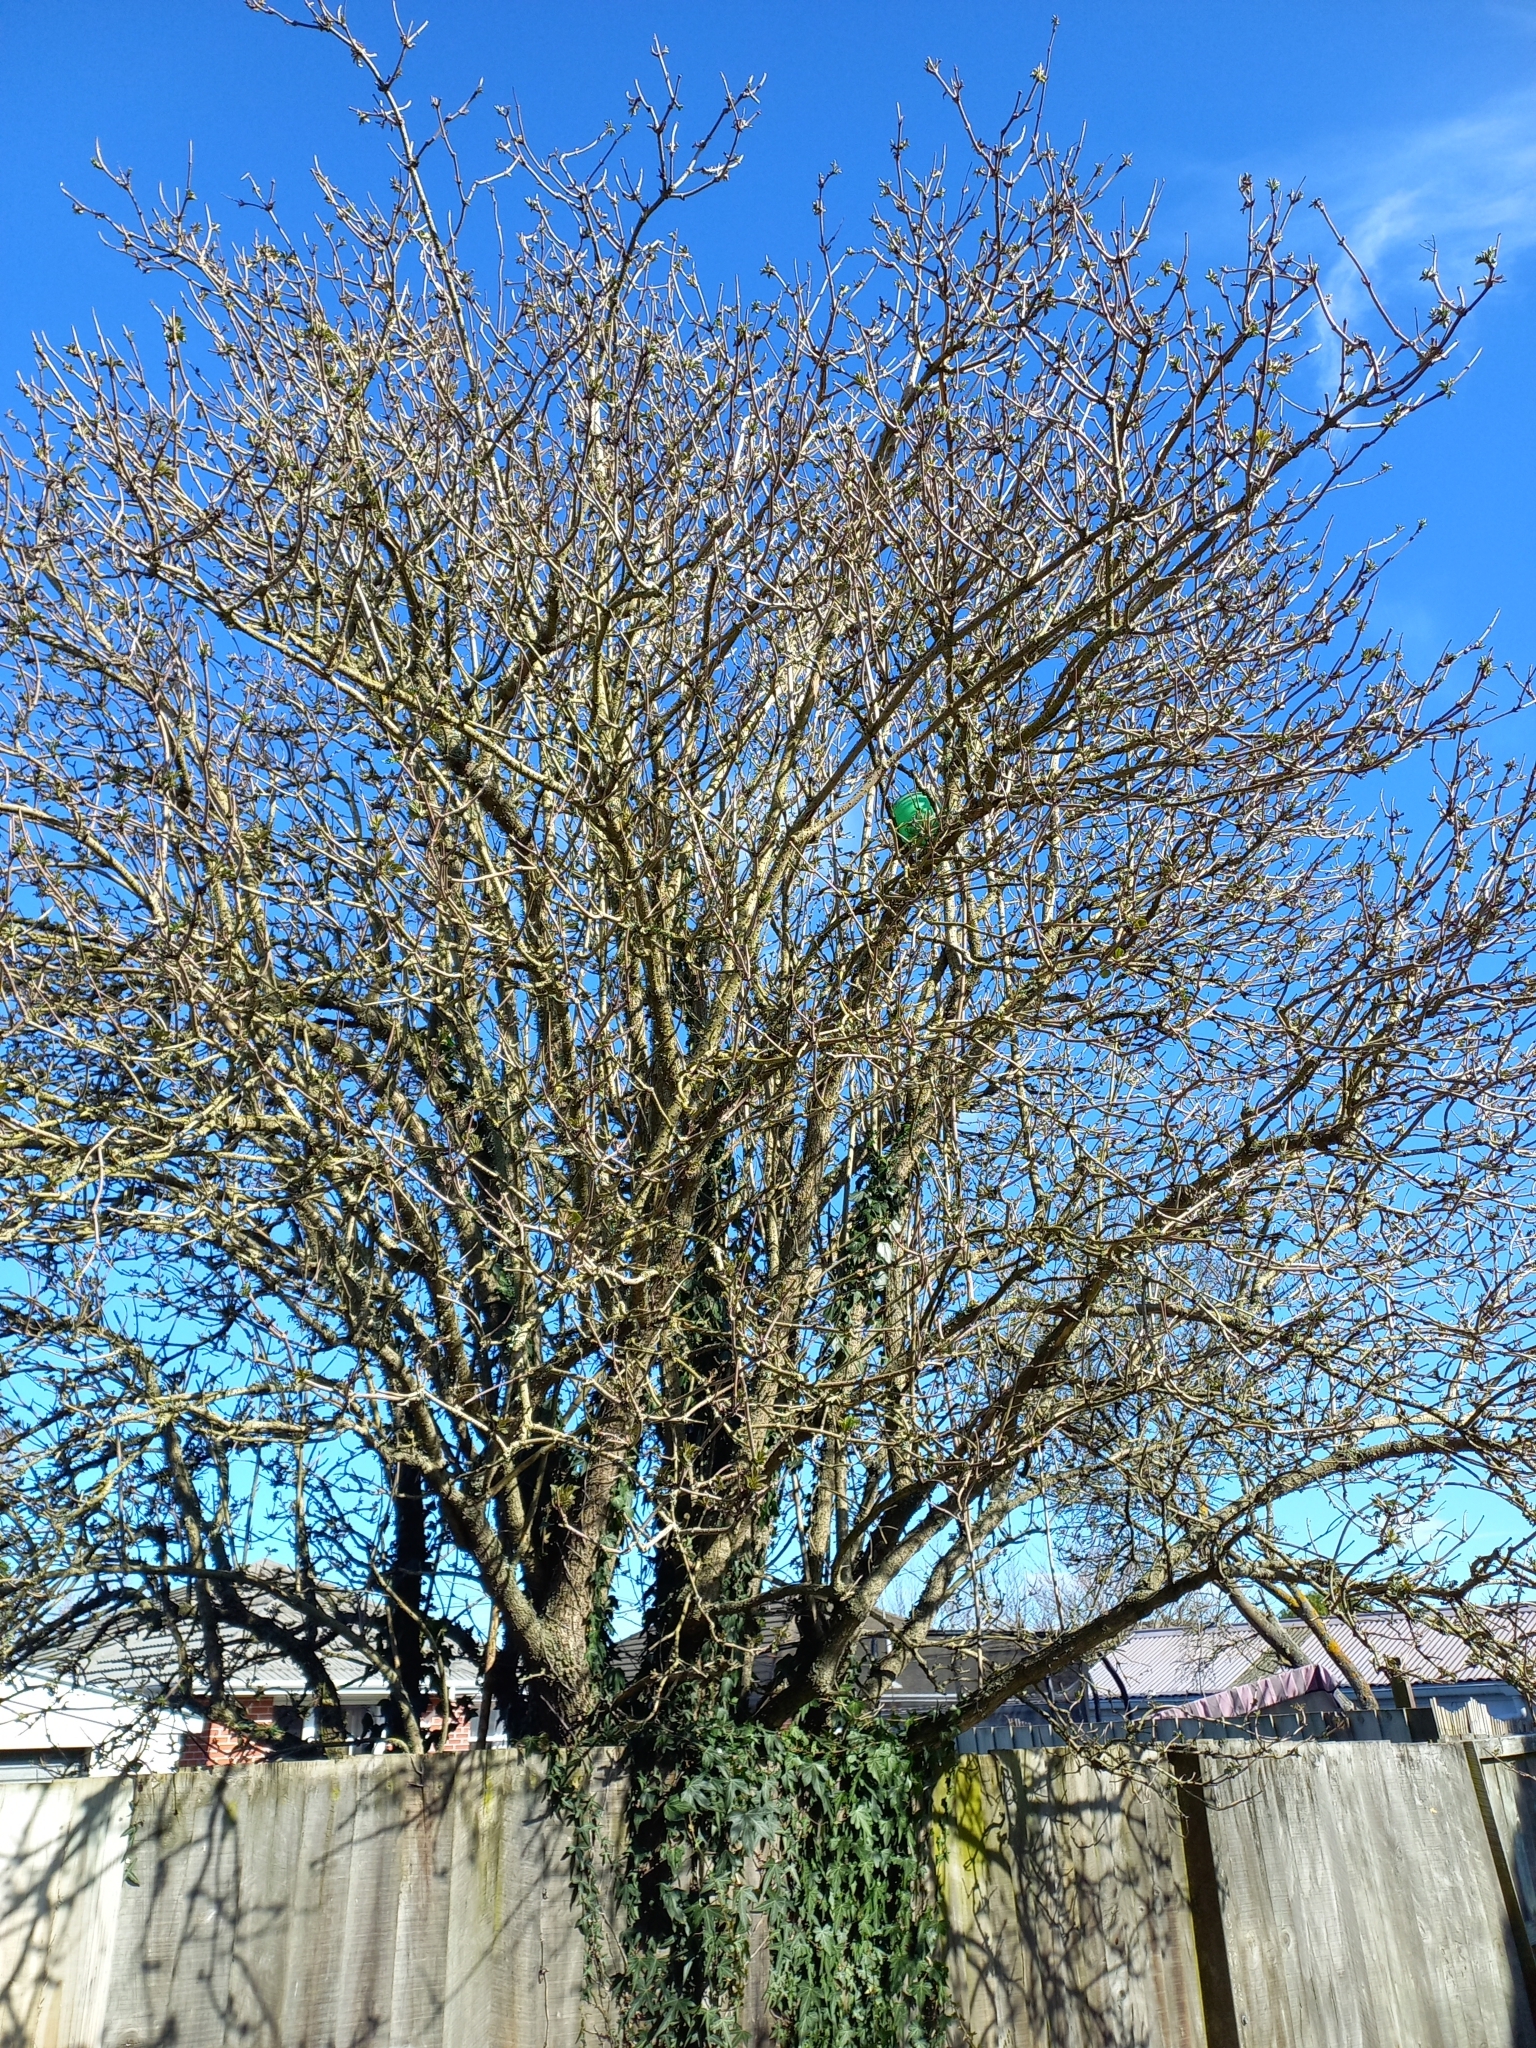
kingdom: Plantae
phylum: Tracheophyta
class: Magnoliopsida
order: Dipsacales
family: Viburnaceae
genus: Sambucus
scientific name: Sambucus nigra
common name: Elder
